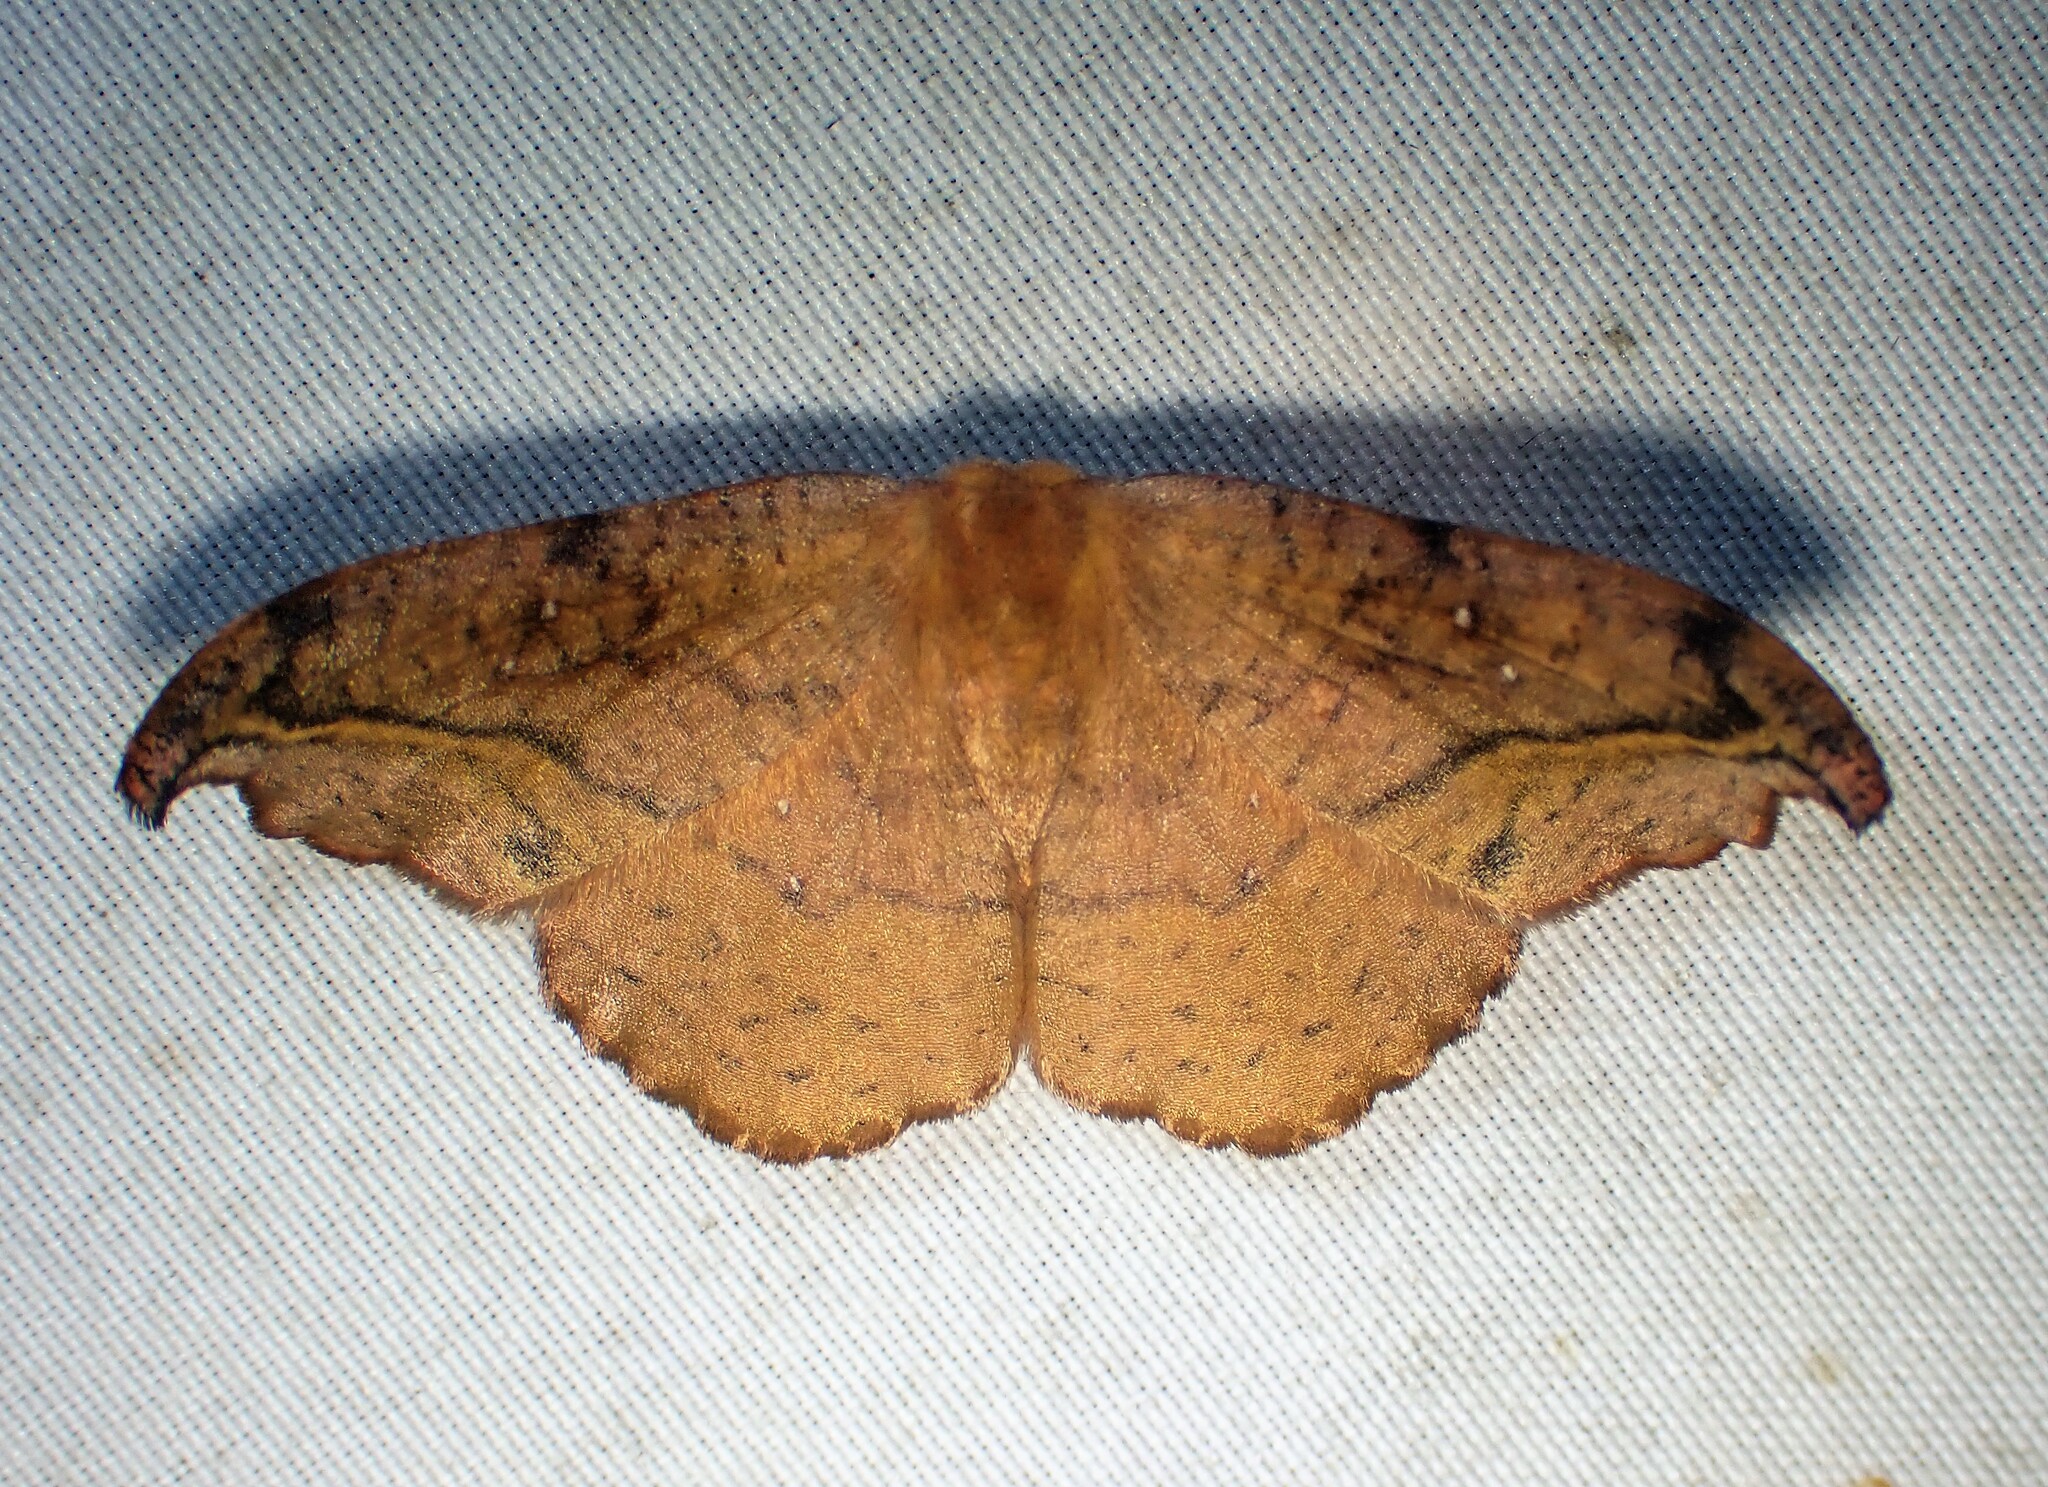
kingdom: Animalia
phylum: Arthropoda
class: Insecta
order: Lepidoptera
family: Drepanidae
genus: Oreta
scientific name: Oreta rosea
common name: Rose hooktip
